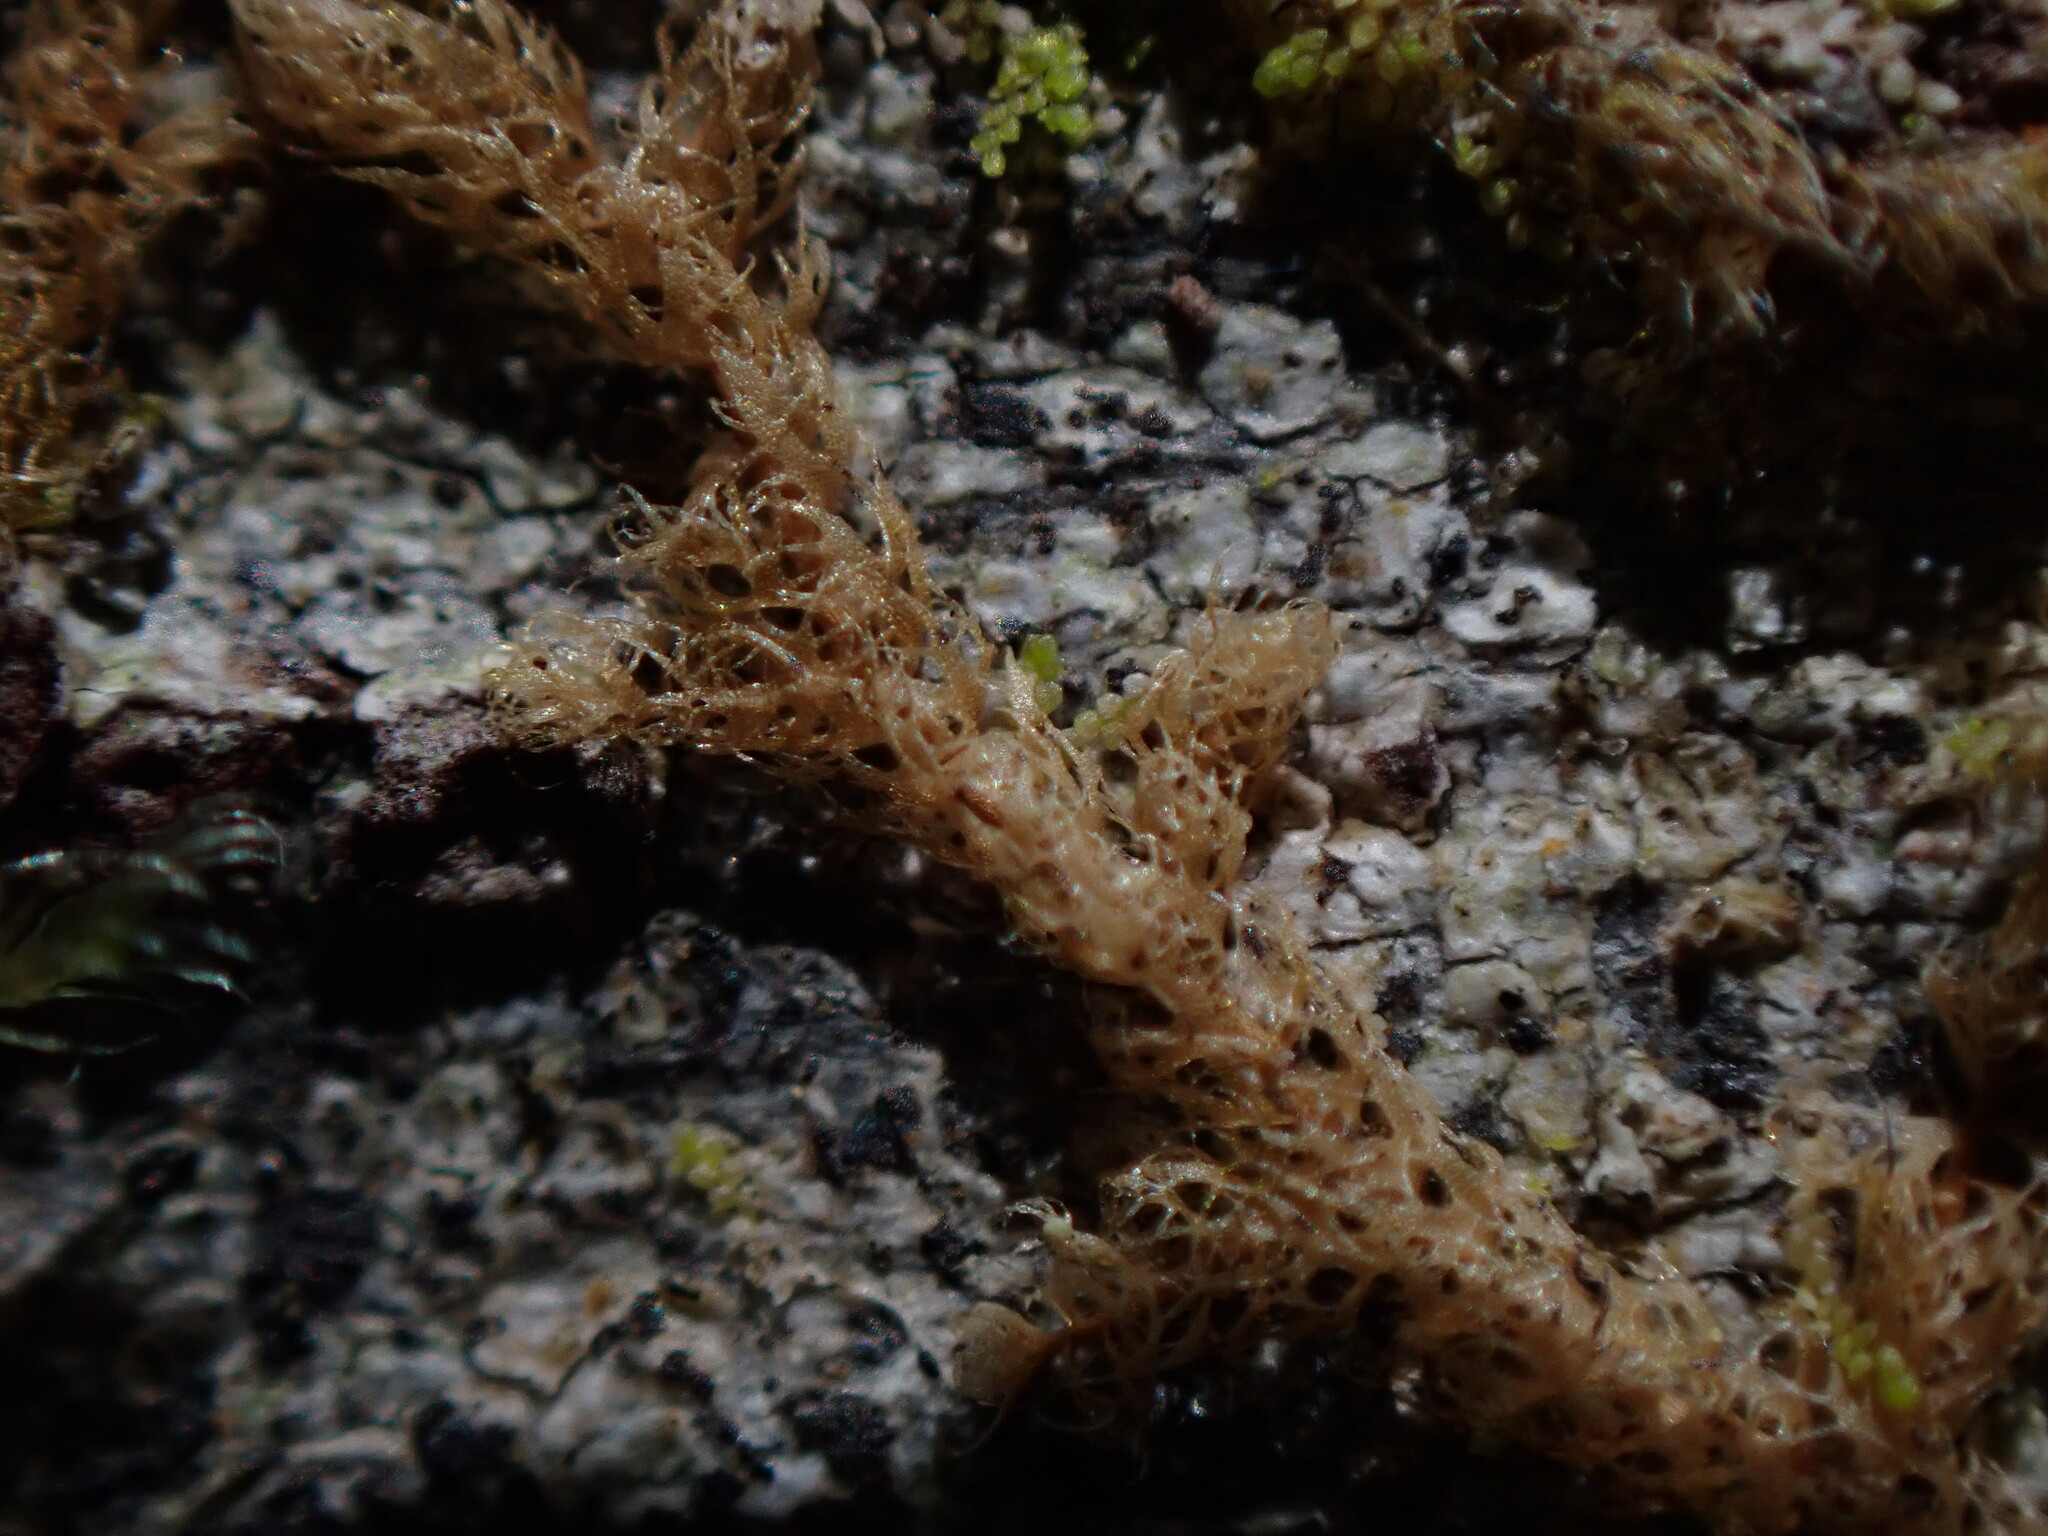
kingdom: Plantae
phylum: Marchantiophyta
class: Jungermanniopsida
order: Ptilidiales
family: Ptilidiaceae
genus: Ptilidium
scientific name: Ptilidium californicum
